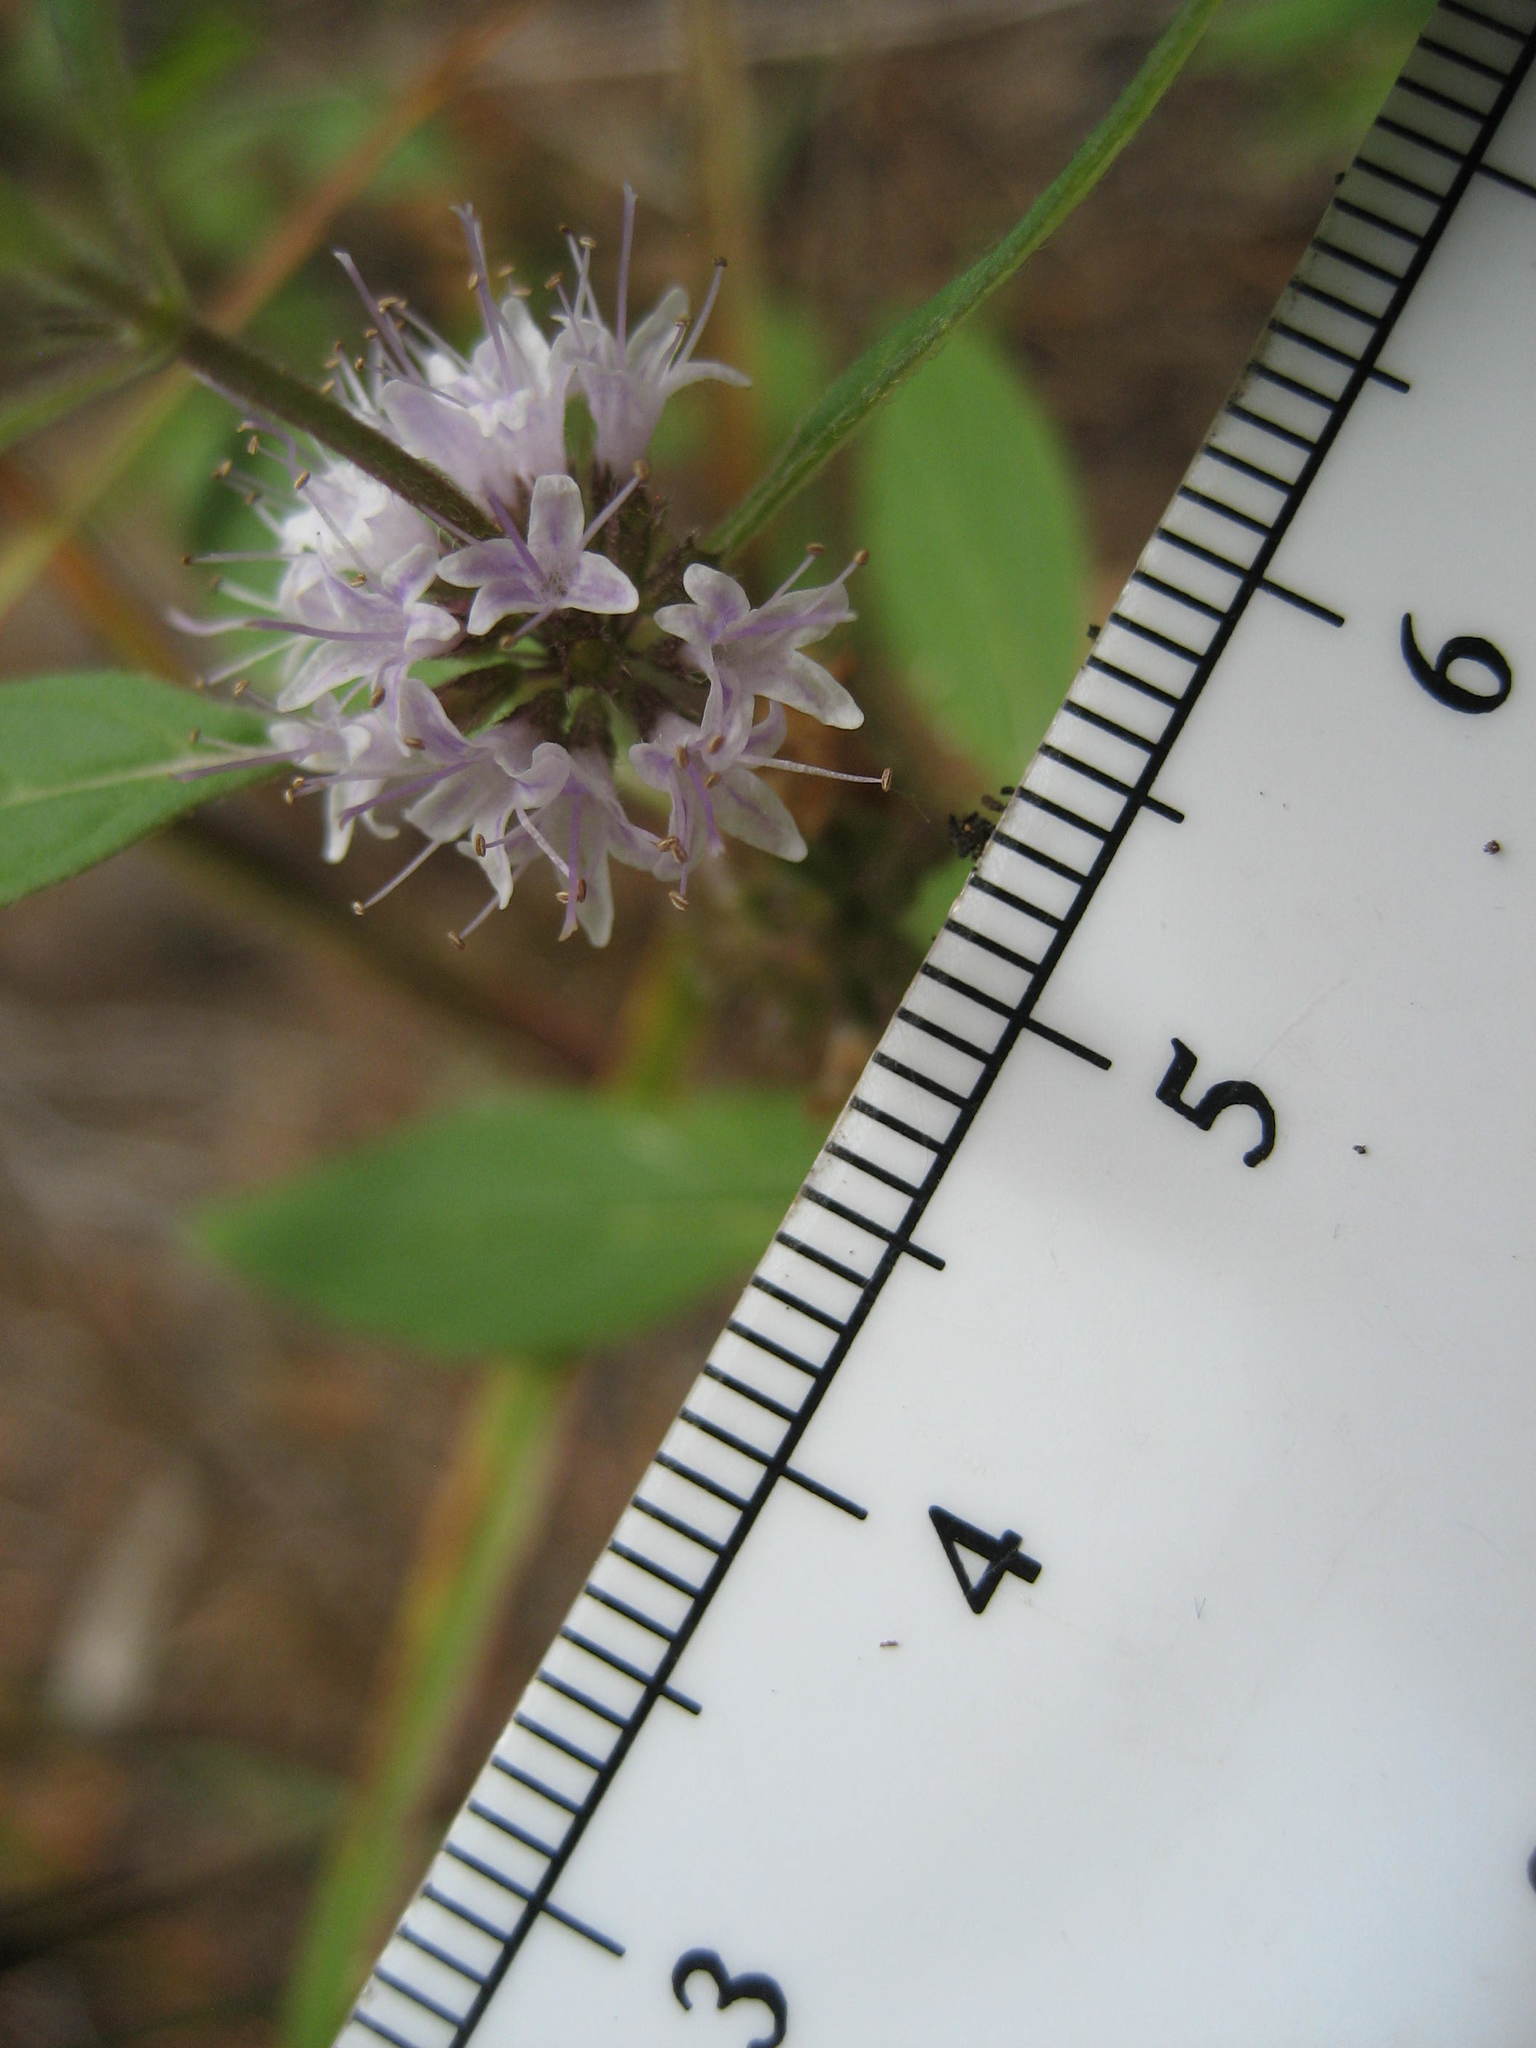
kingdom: Plantae
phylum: Tracheophyta
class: Magnoliopsida
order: Lamiales
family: Lamiaceae
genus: Mentha
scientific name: Mentha canadensis
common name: American corn mint
